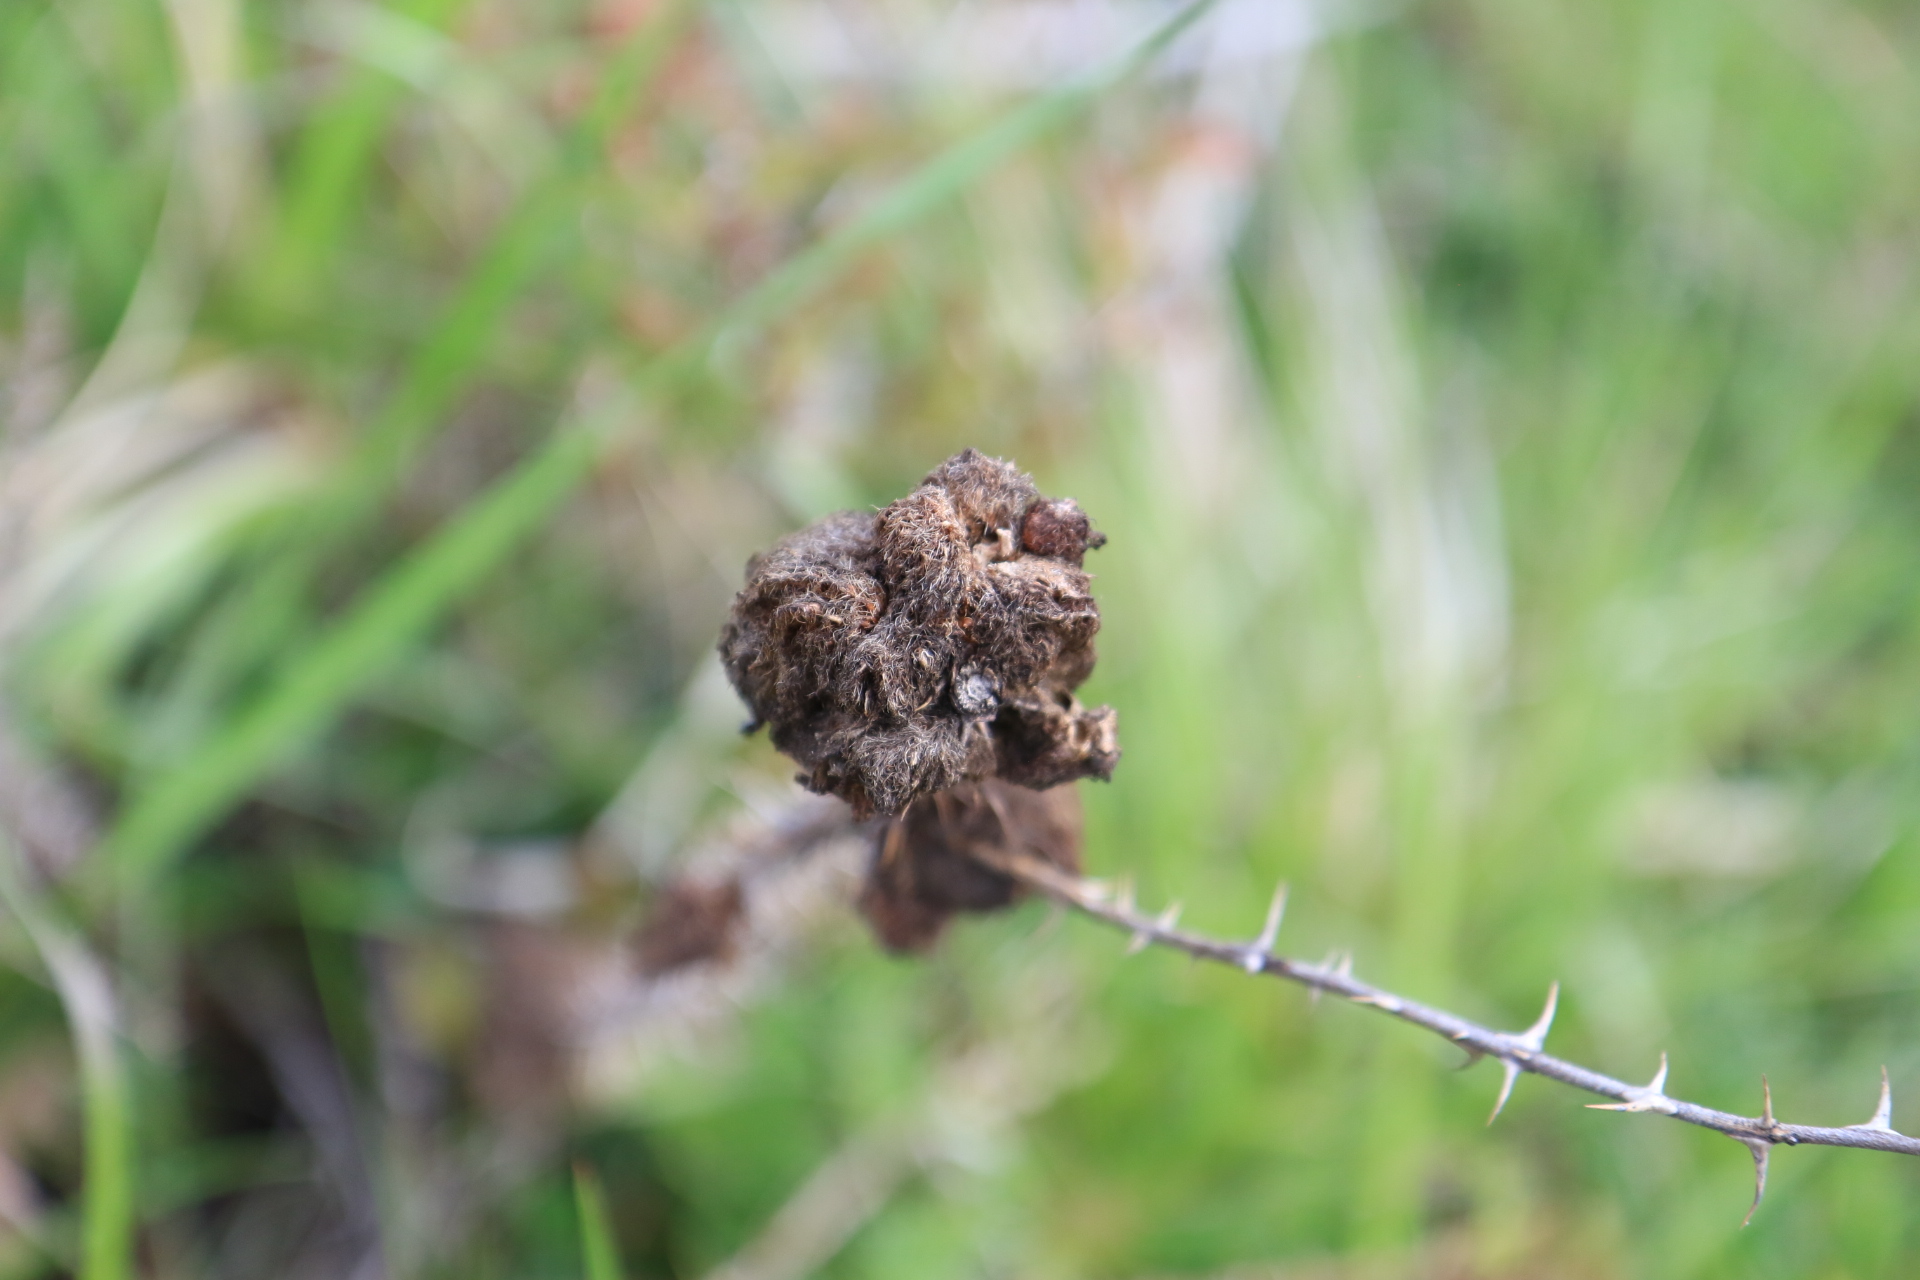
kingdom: Animalia
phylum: Arthropoda
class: Insecta
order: Hymenoptera
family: Cynipidae
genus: Diplolepis
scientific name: Diplolepis rosae
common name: Bedeguar gall
